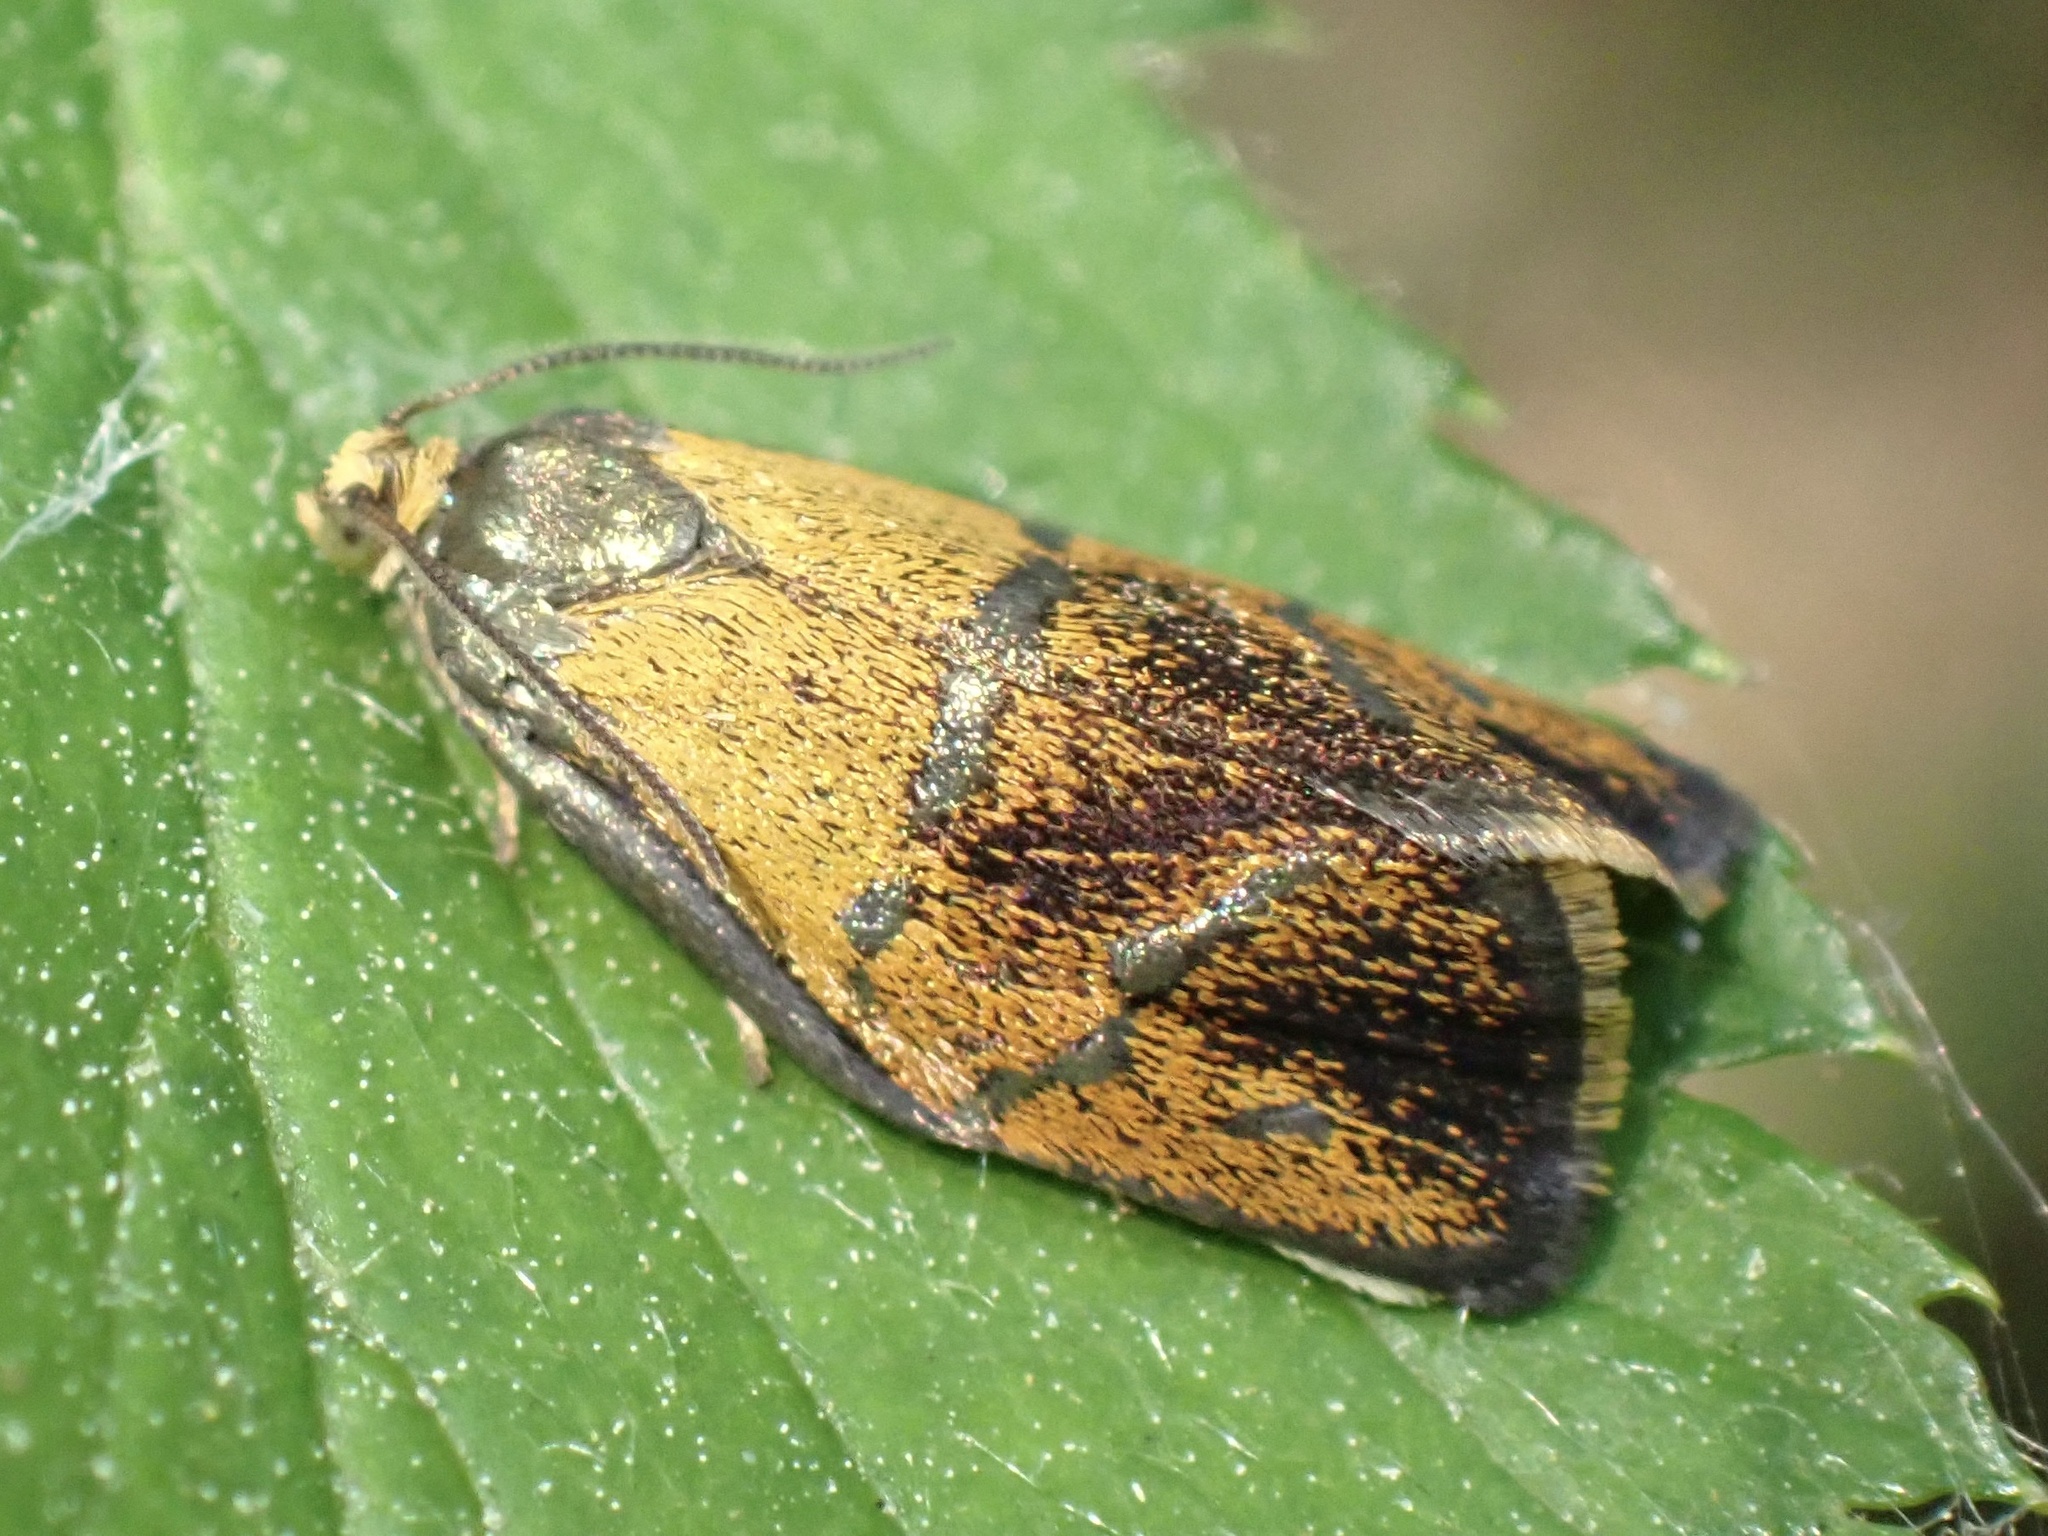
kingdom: Animalia
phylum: Arthropoda
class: Insecta
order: Lepidoptera
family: Tortricidae
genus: Ptycholoma
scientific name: Ptycholoma lecheana
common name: Leches twist moth
